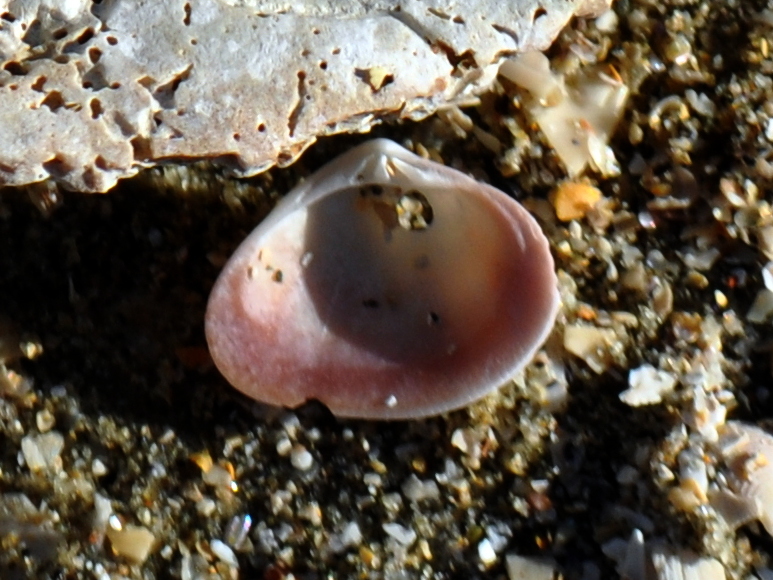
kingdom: Animalia
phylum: Mollusca
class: Bivalvia
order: Venerida
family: Veneridae
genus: Tawera
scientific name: Tawera spissa
